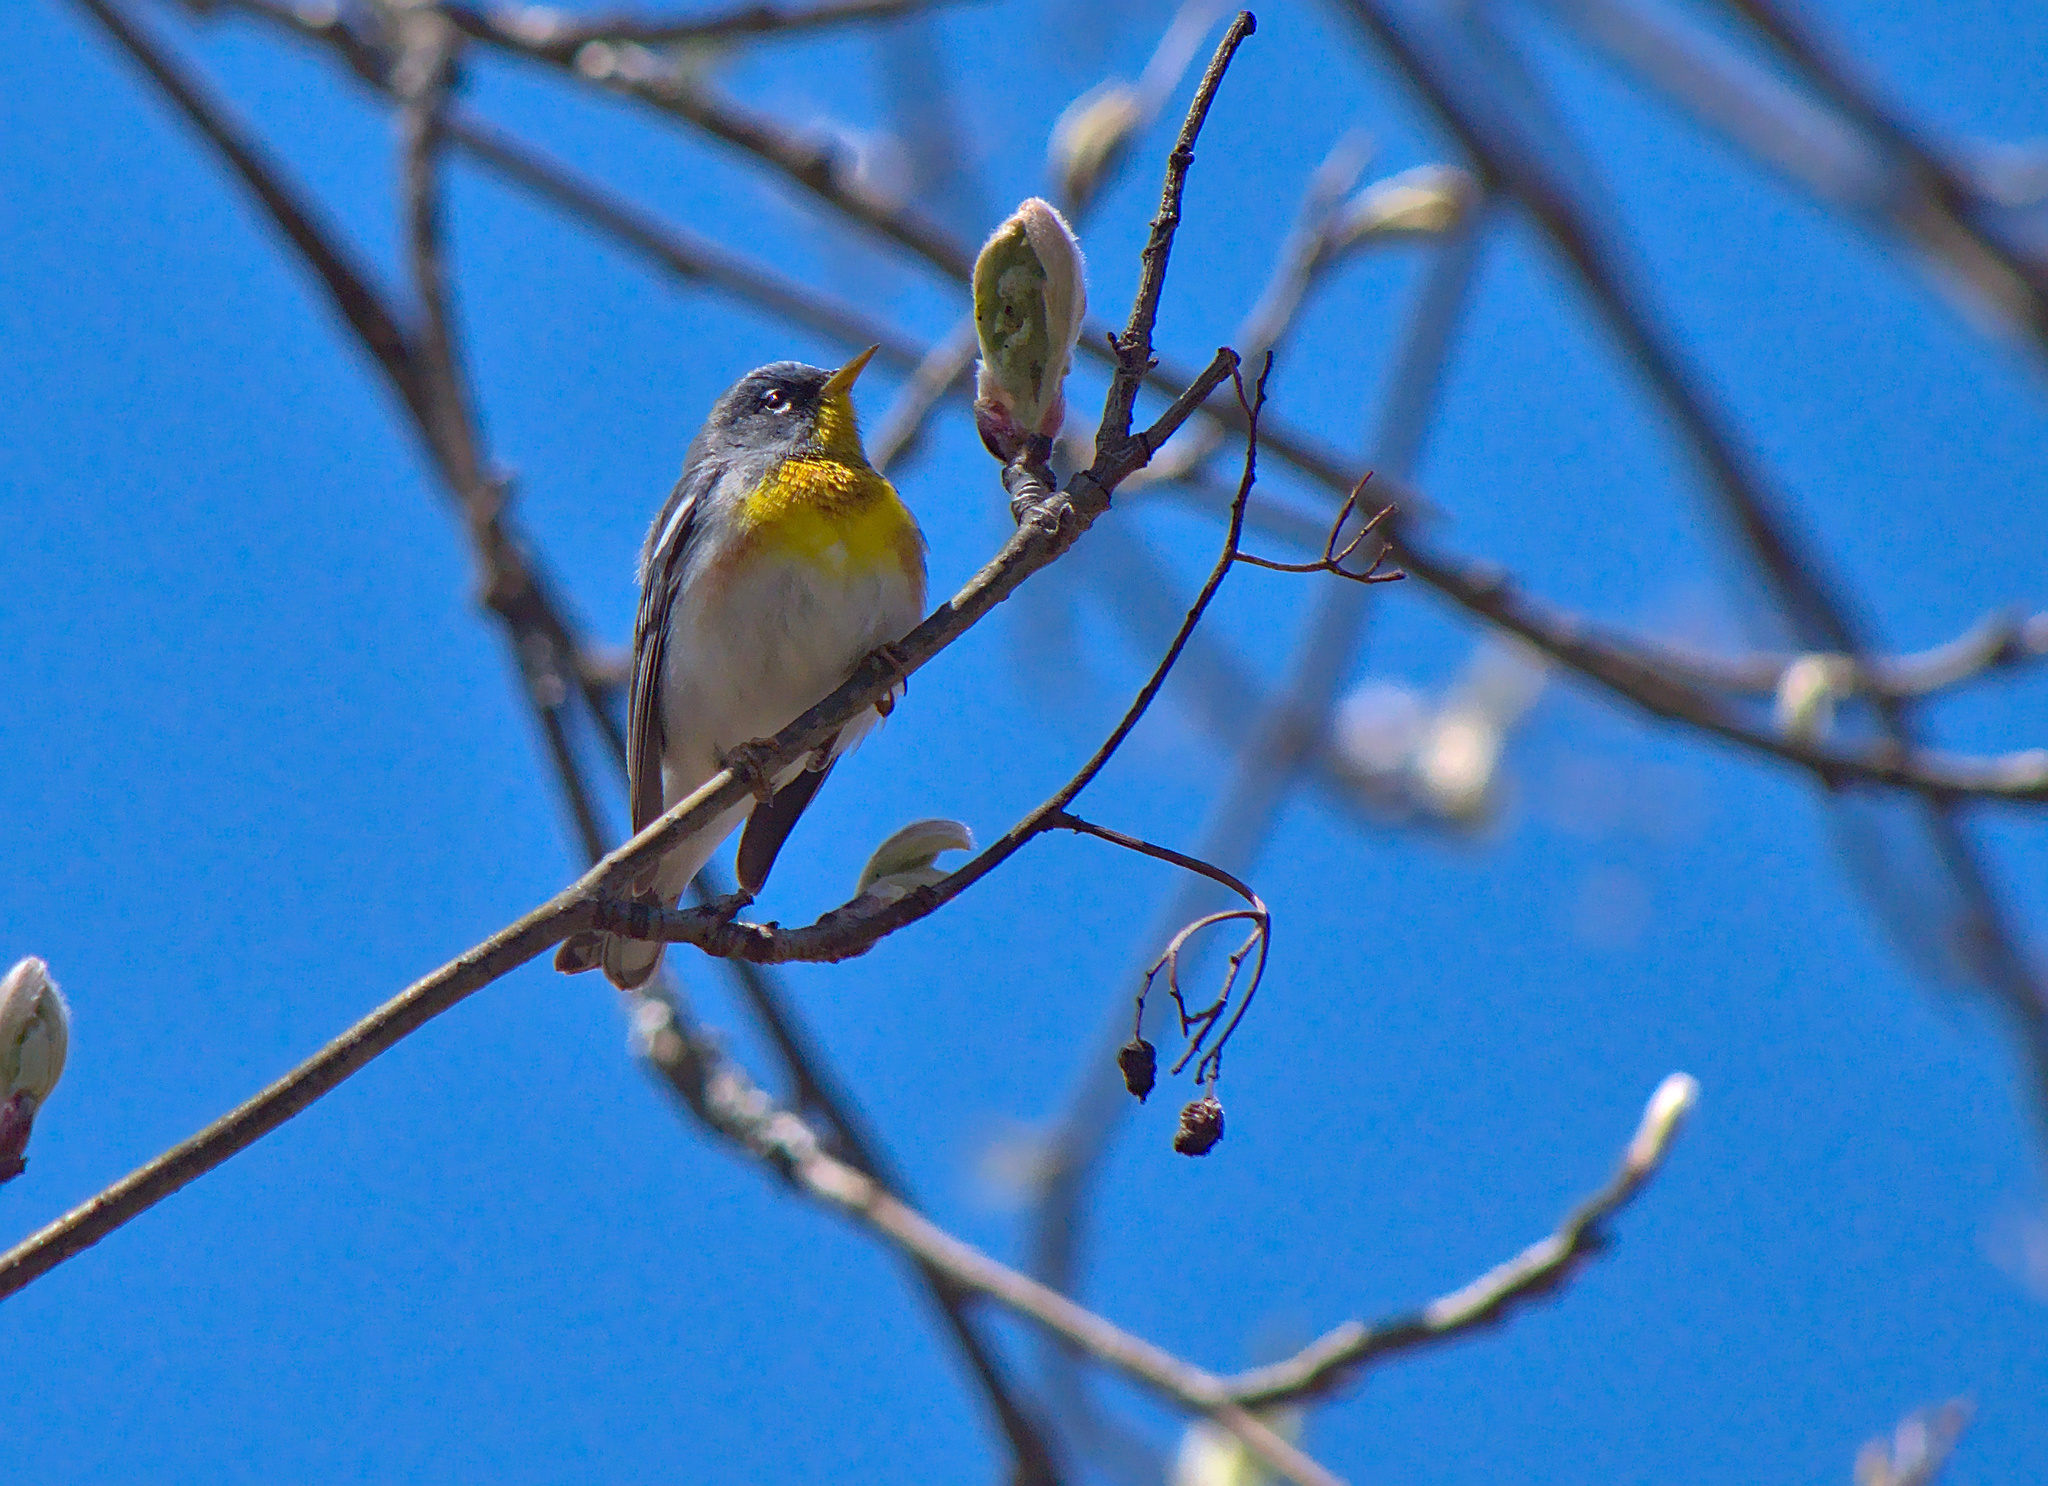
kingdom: Animalia
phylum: Chordata
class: Aves
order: Passeriformes
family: Parulidae
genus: Setophaga
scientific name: Setophaga americana
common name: Northern parula
